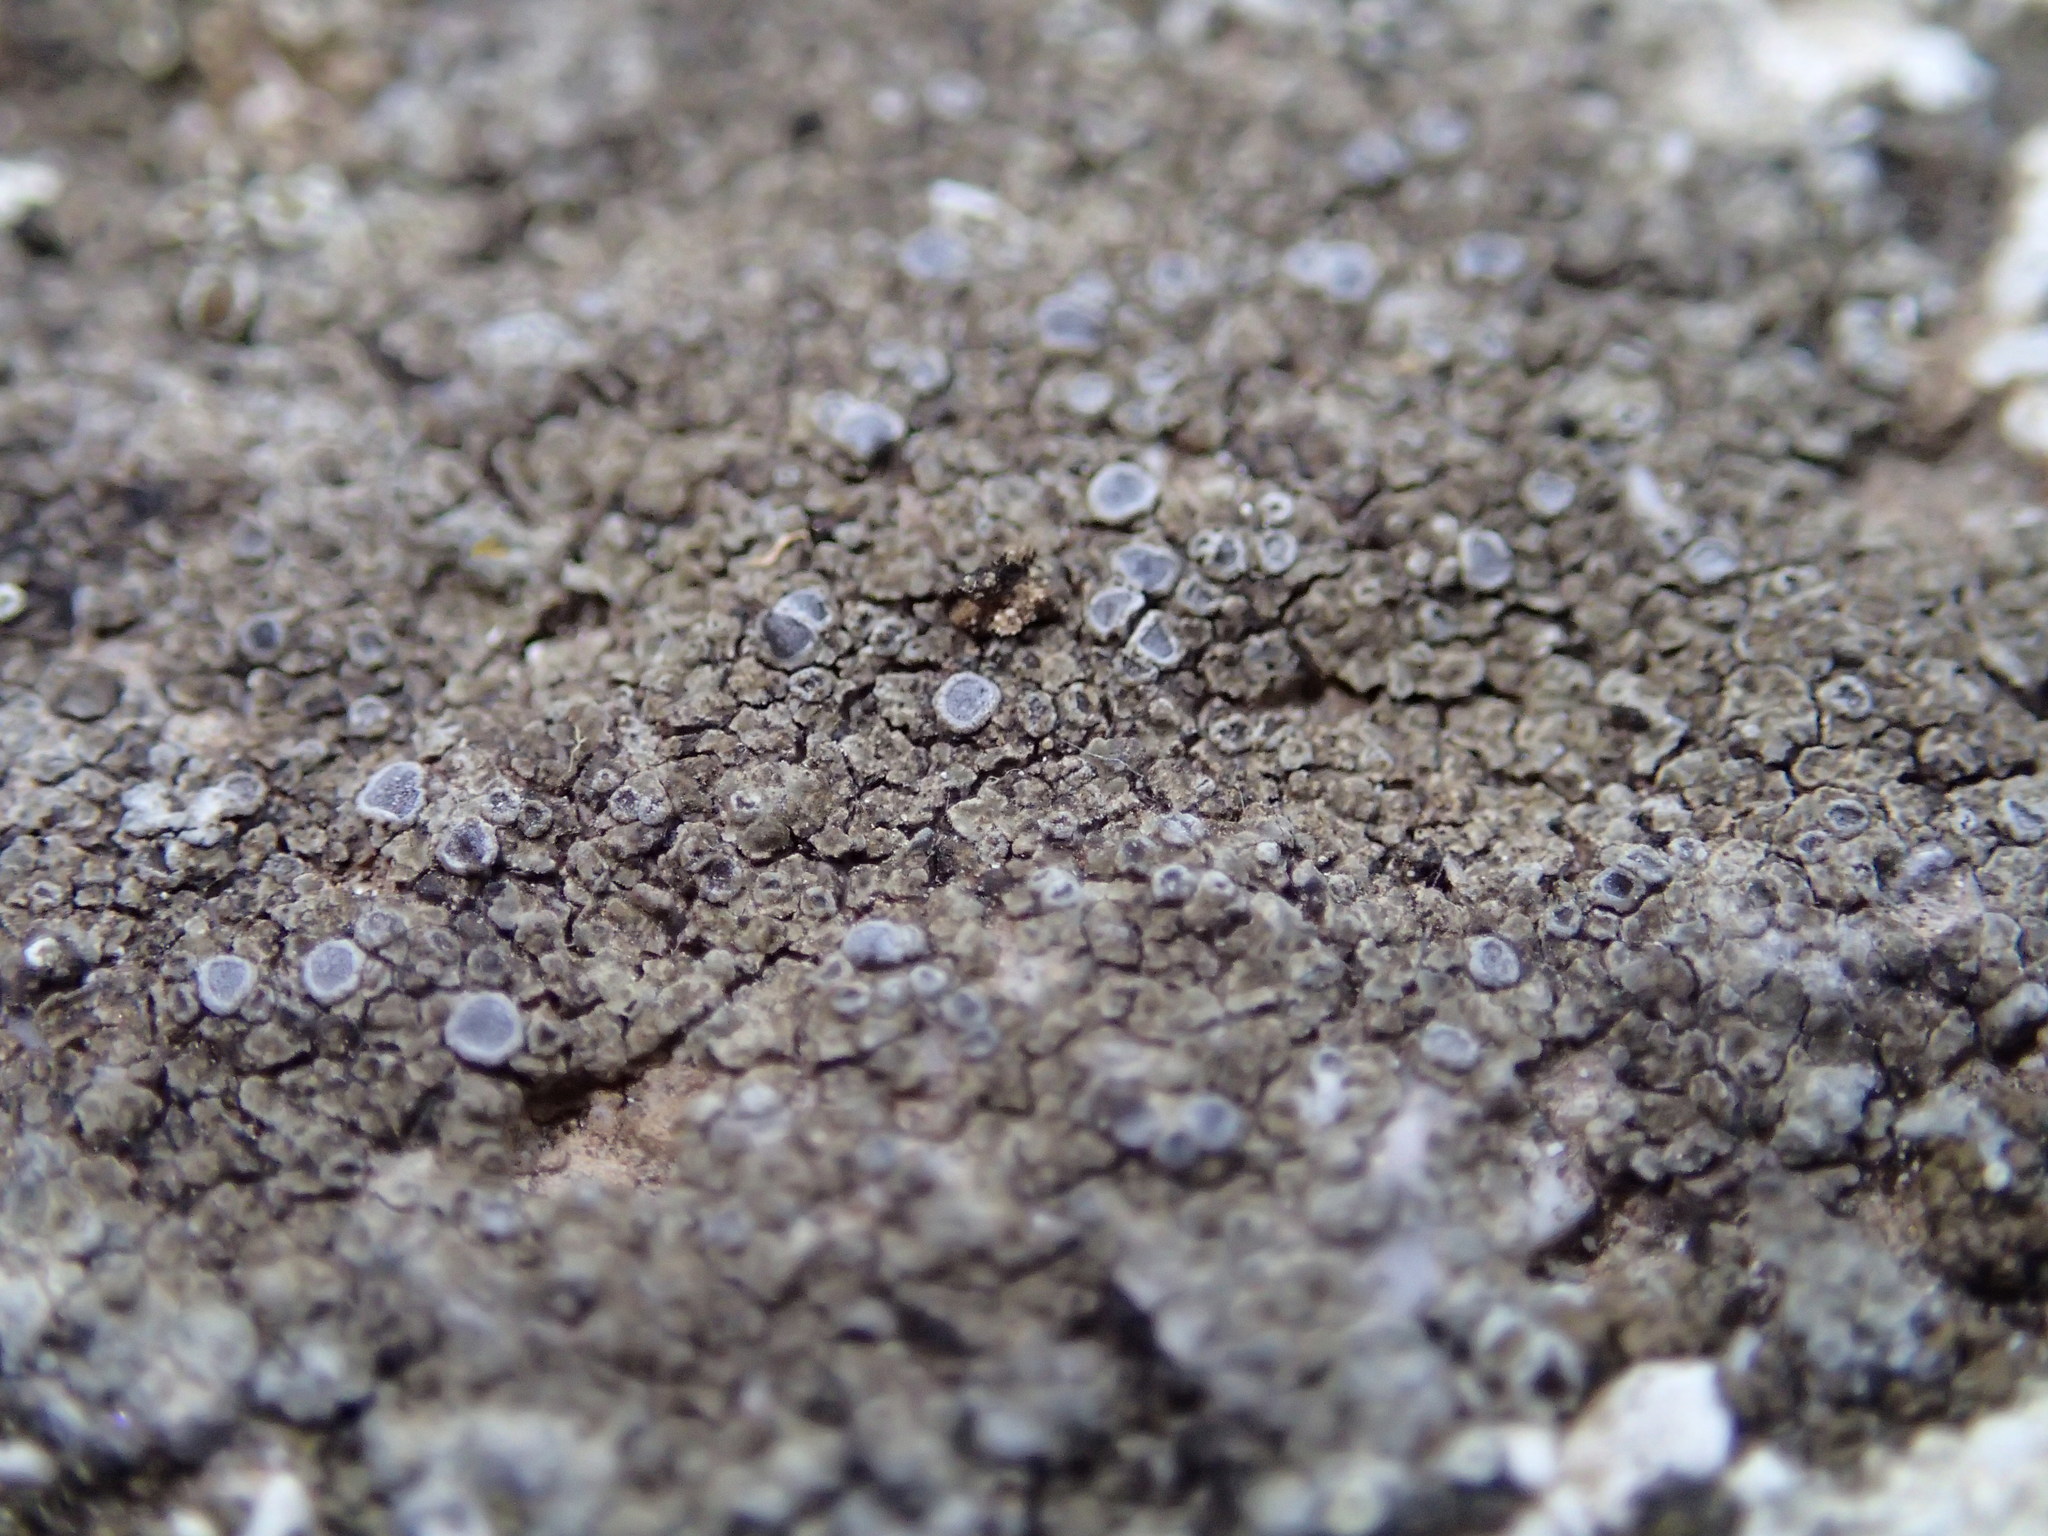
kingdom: Fungi
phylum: Ascomycota
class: Lecanoromycetes
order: Lecanorales
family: Lecanoraceae
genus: Glaucomaria
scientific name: Glaucomaria rupicola
